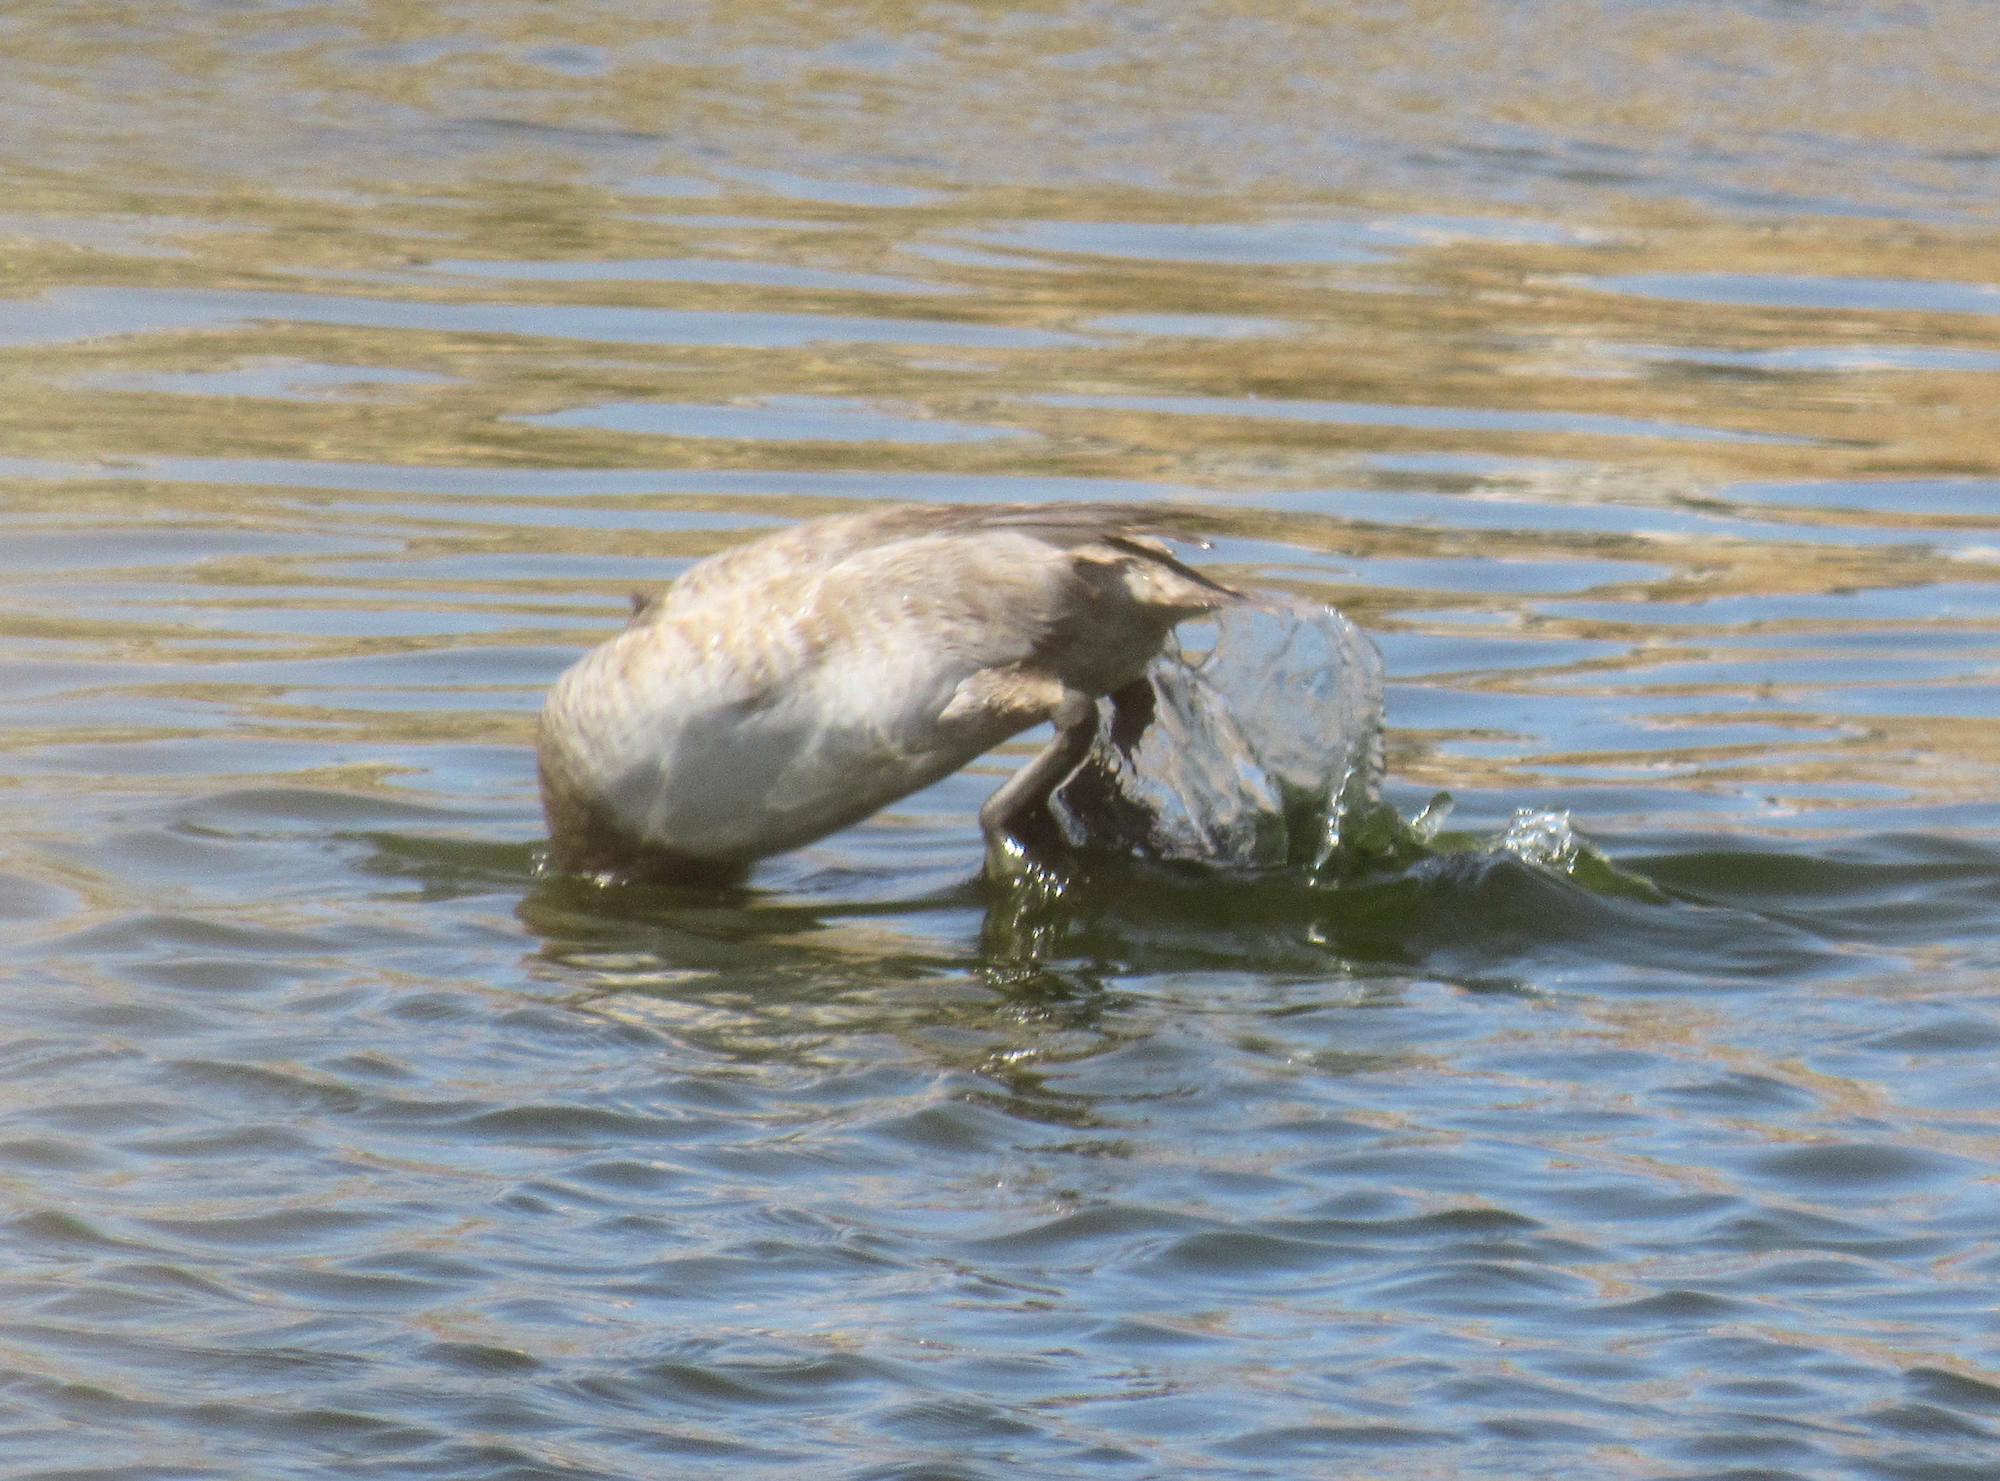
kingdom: Animalia
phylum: Chordata
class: Aves
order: Anseriformes
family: Anatidae
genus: Aythya
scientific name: Aythya valisineria
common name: Canvasback
